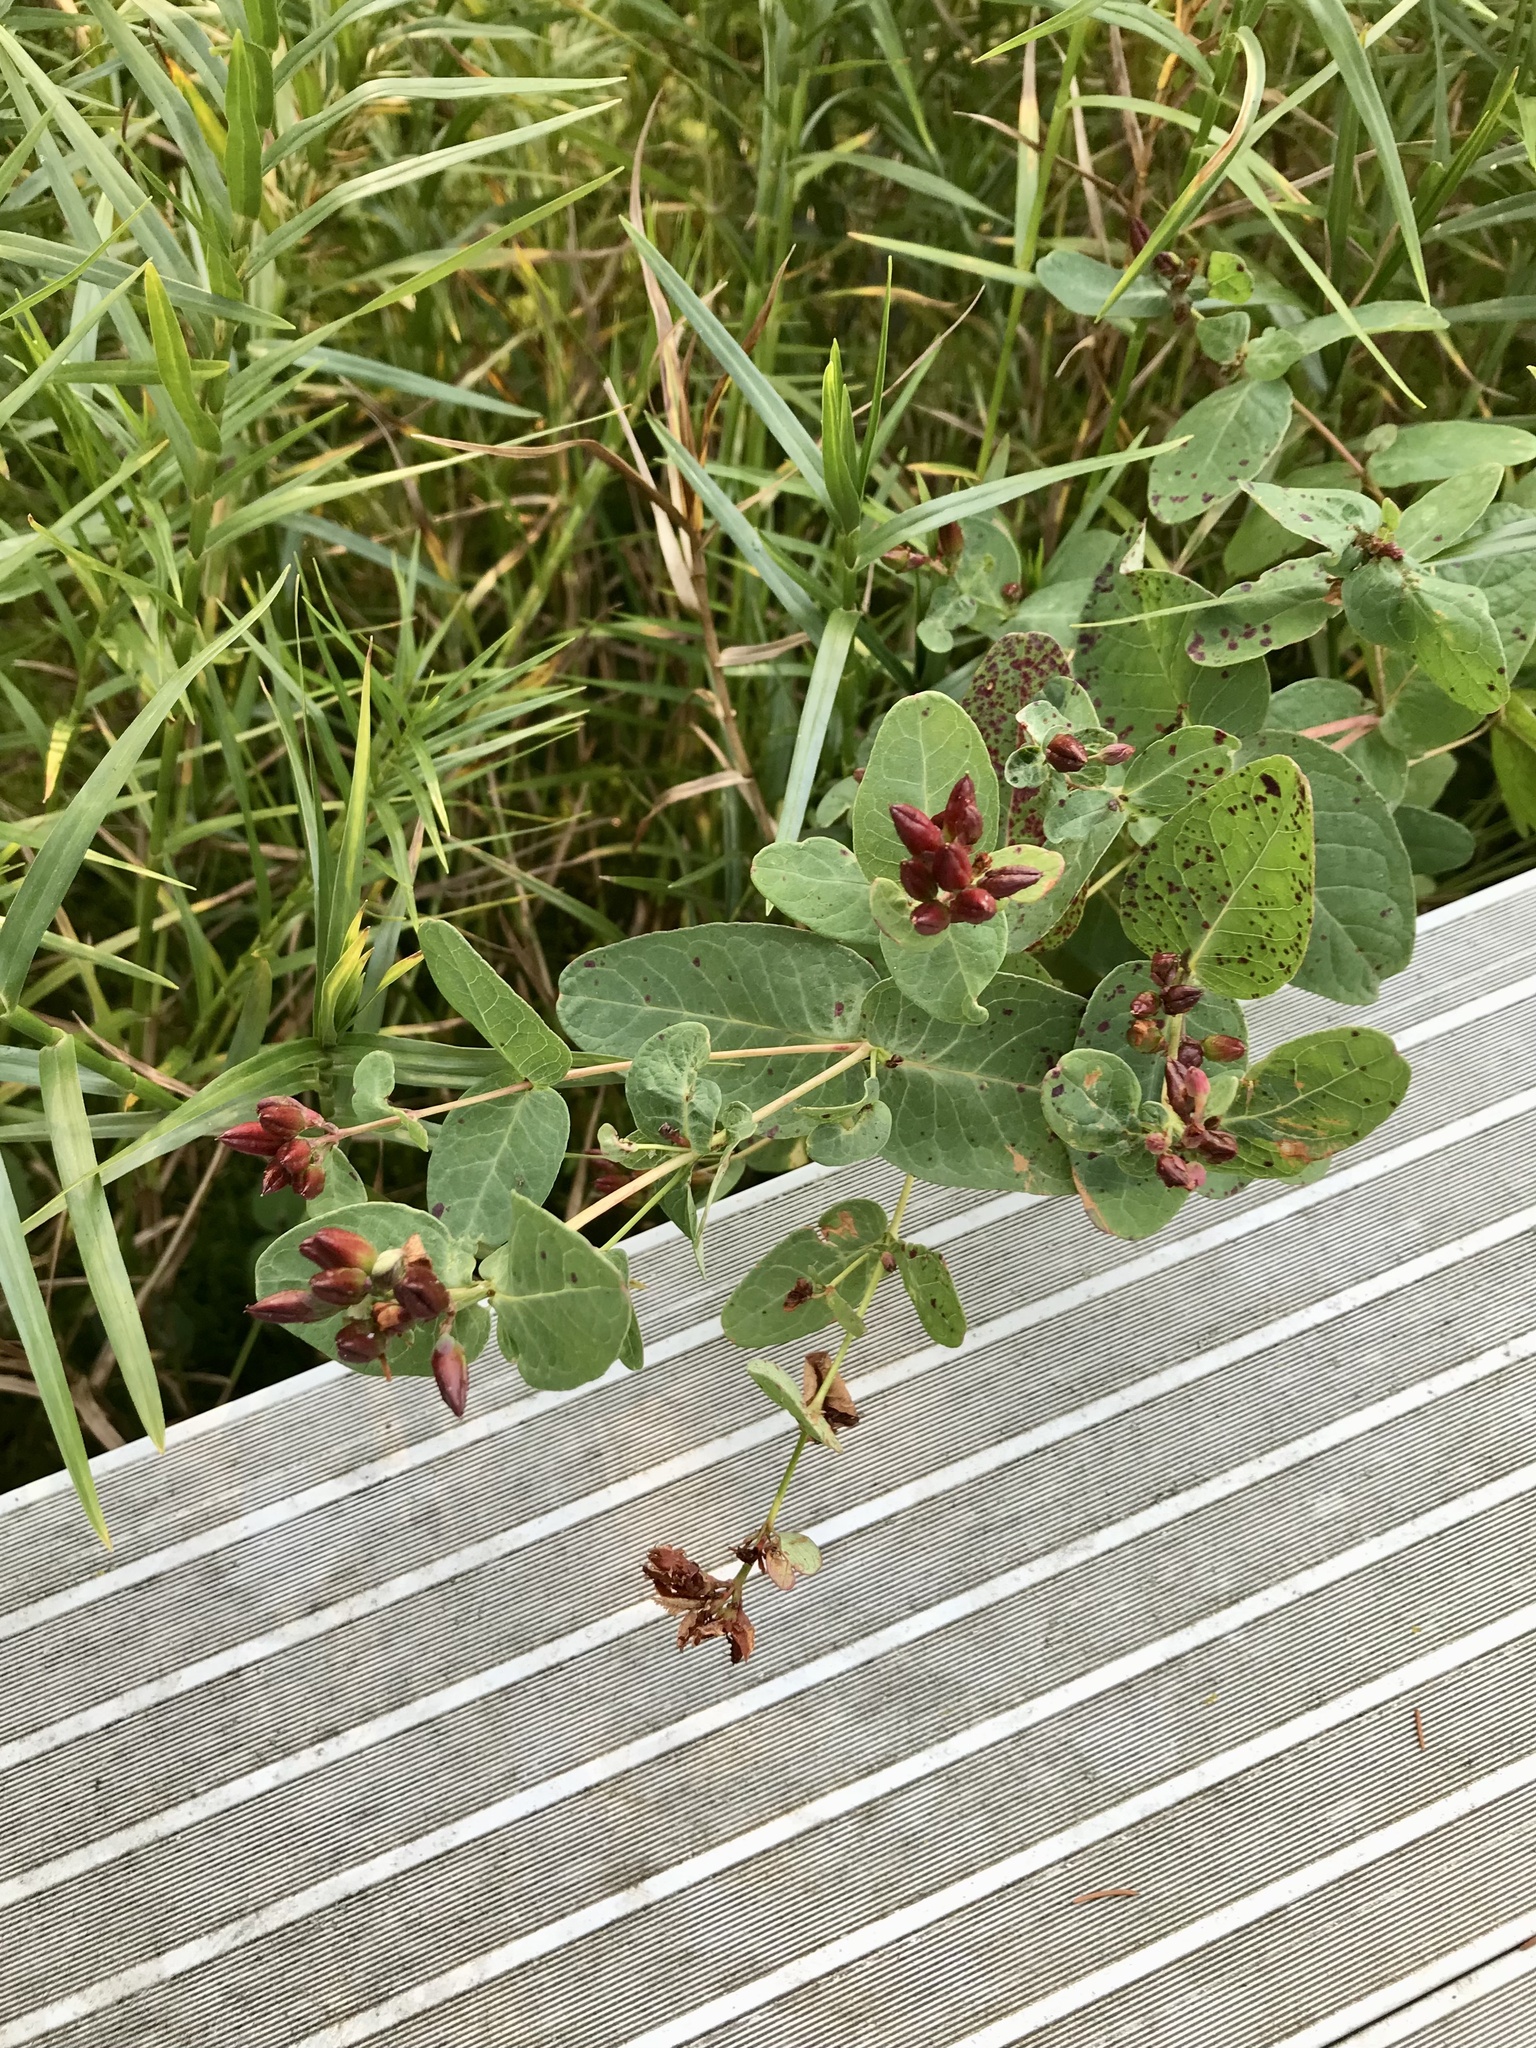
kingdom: Plantae
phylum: Tracheophyta
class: Magnoliopsida
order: Malpighiales
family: Hypericaceae
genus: Triadenum
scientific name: Triadenum fraseri
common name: Fraser's marsh st. johnswort
